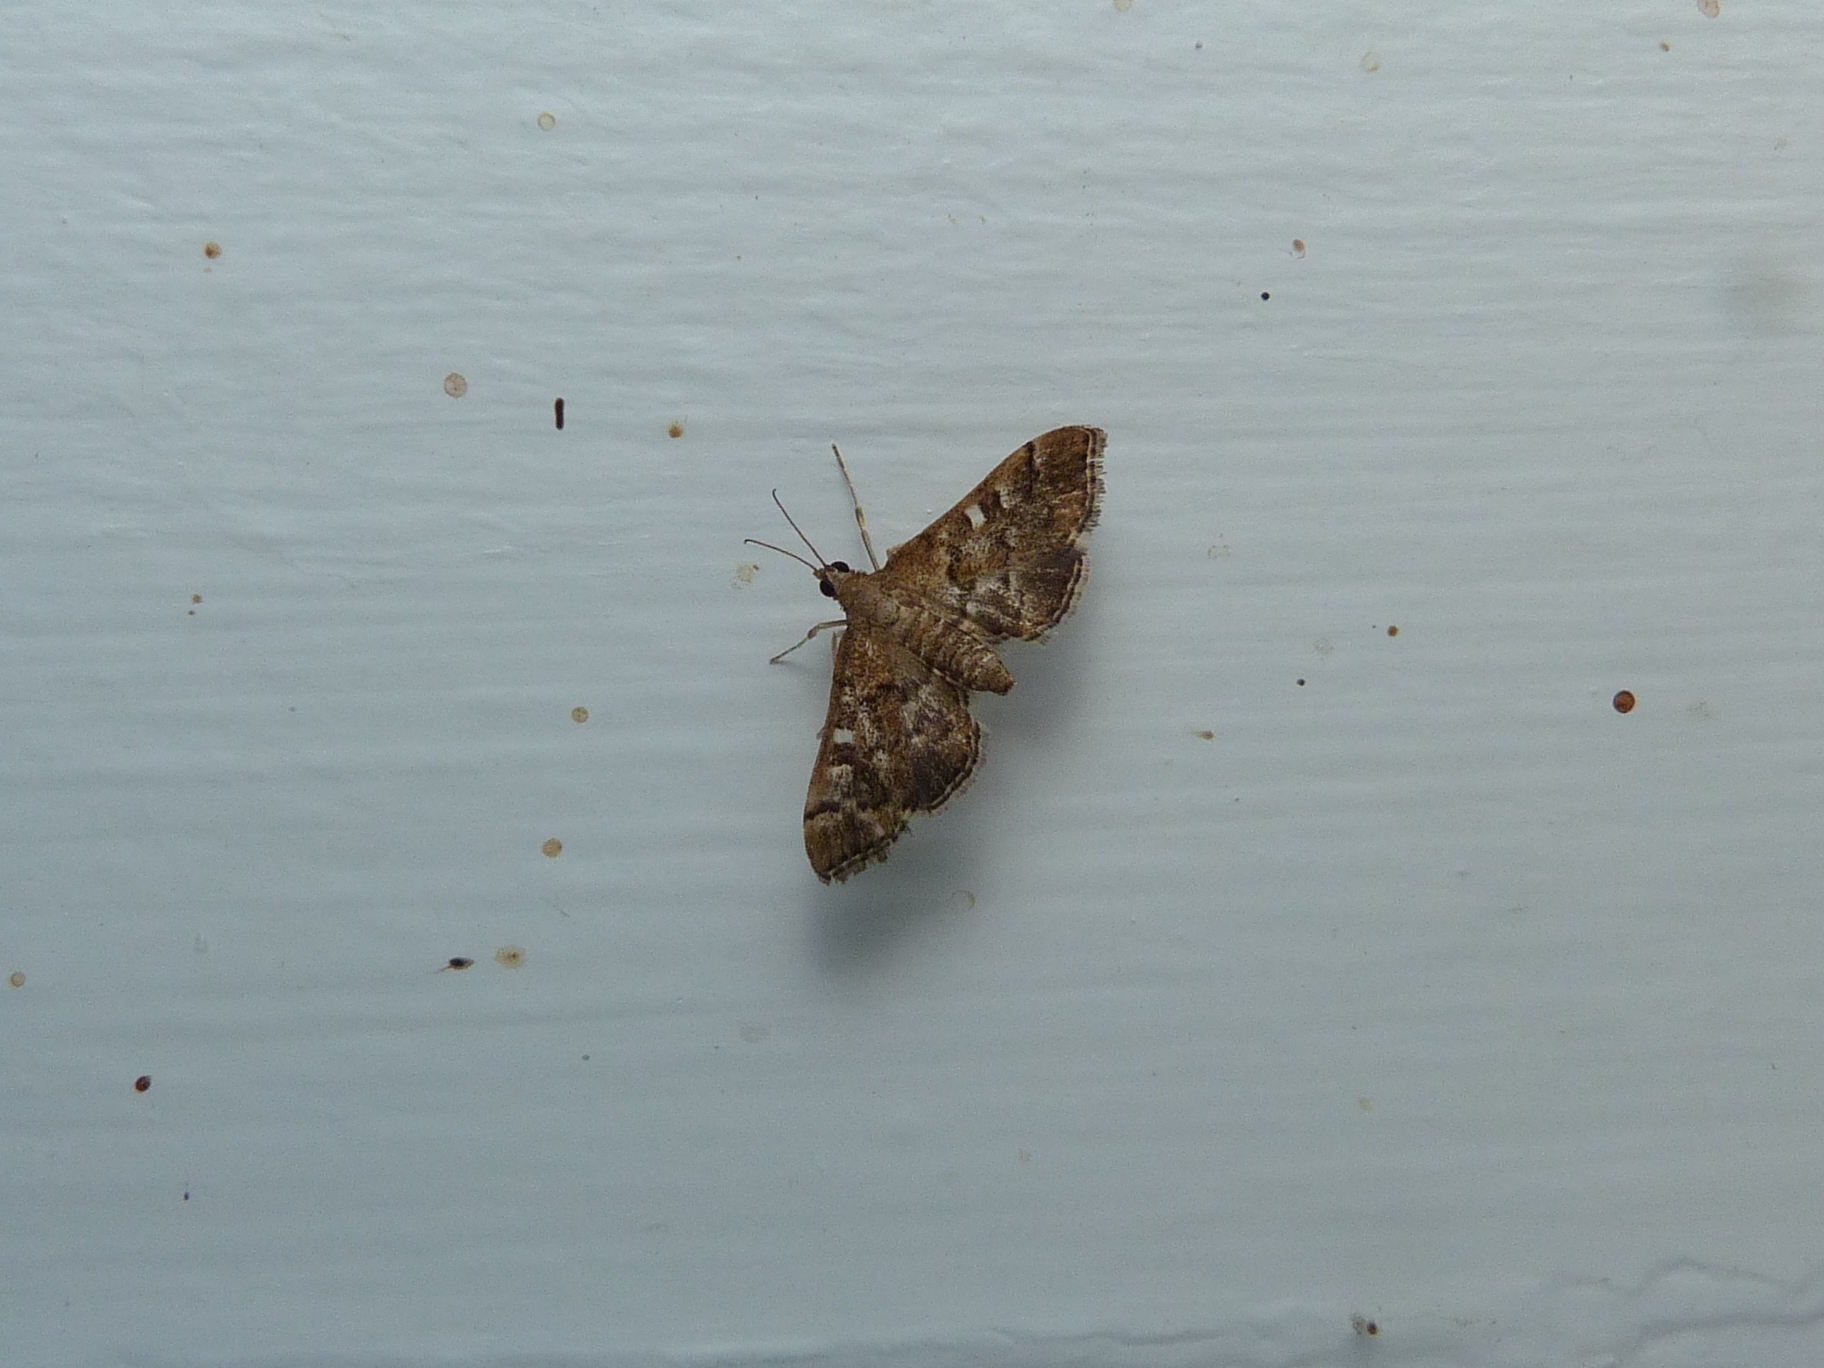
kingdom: Animalia
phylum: Arthropoda
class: Insecta
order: Lepidoptera
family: Crambidae
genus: Nacoleia
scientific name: Nacoleia rhoeoalis
